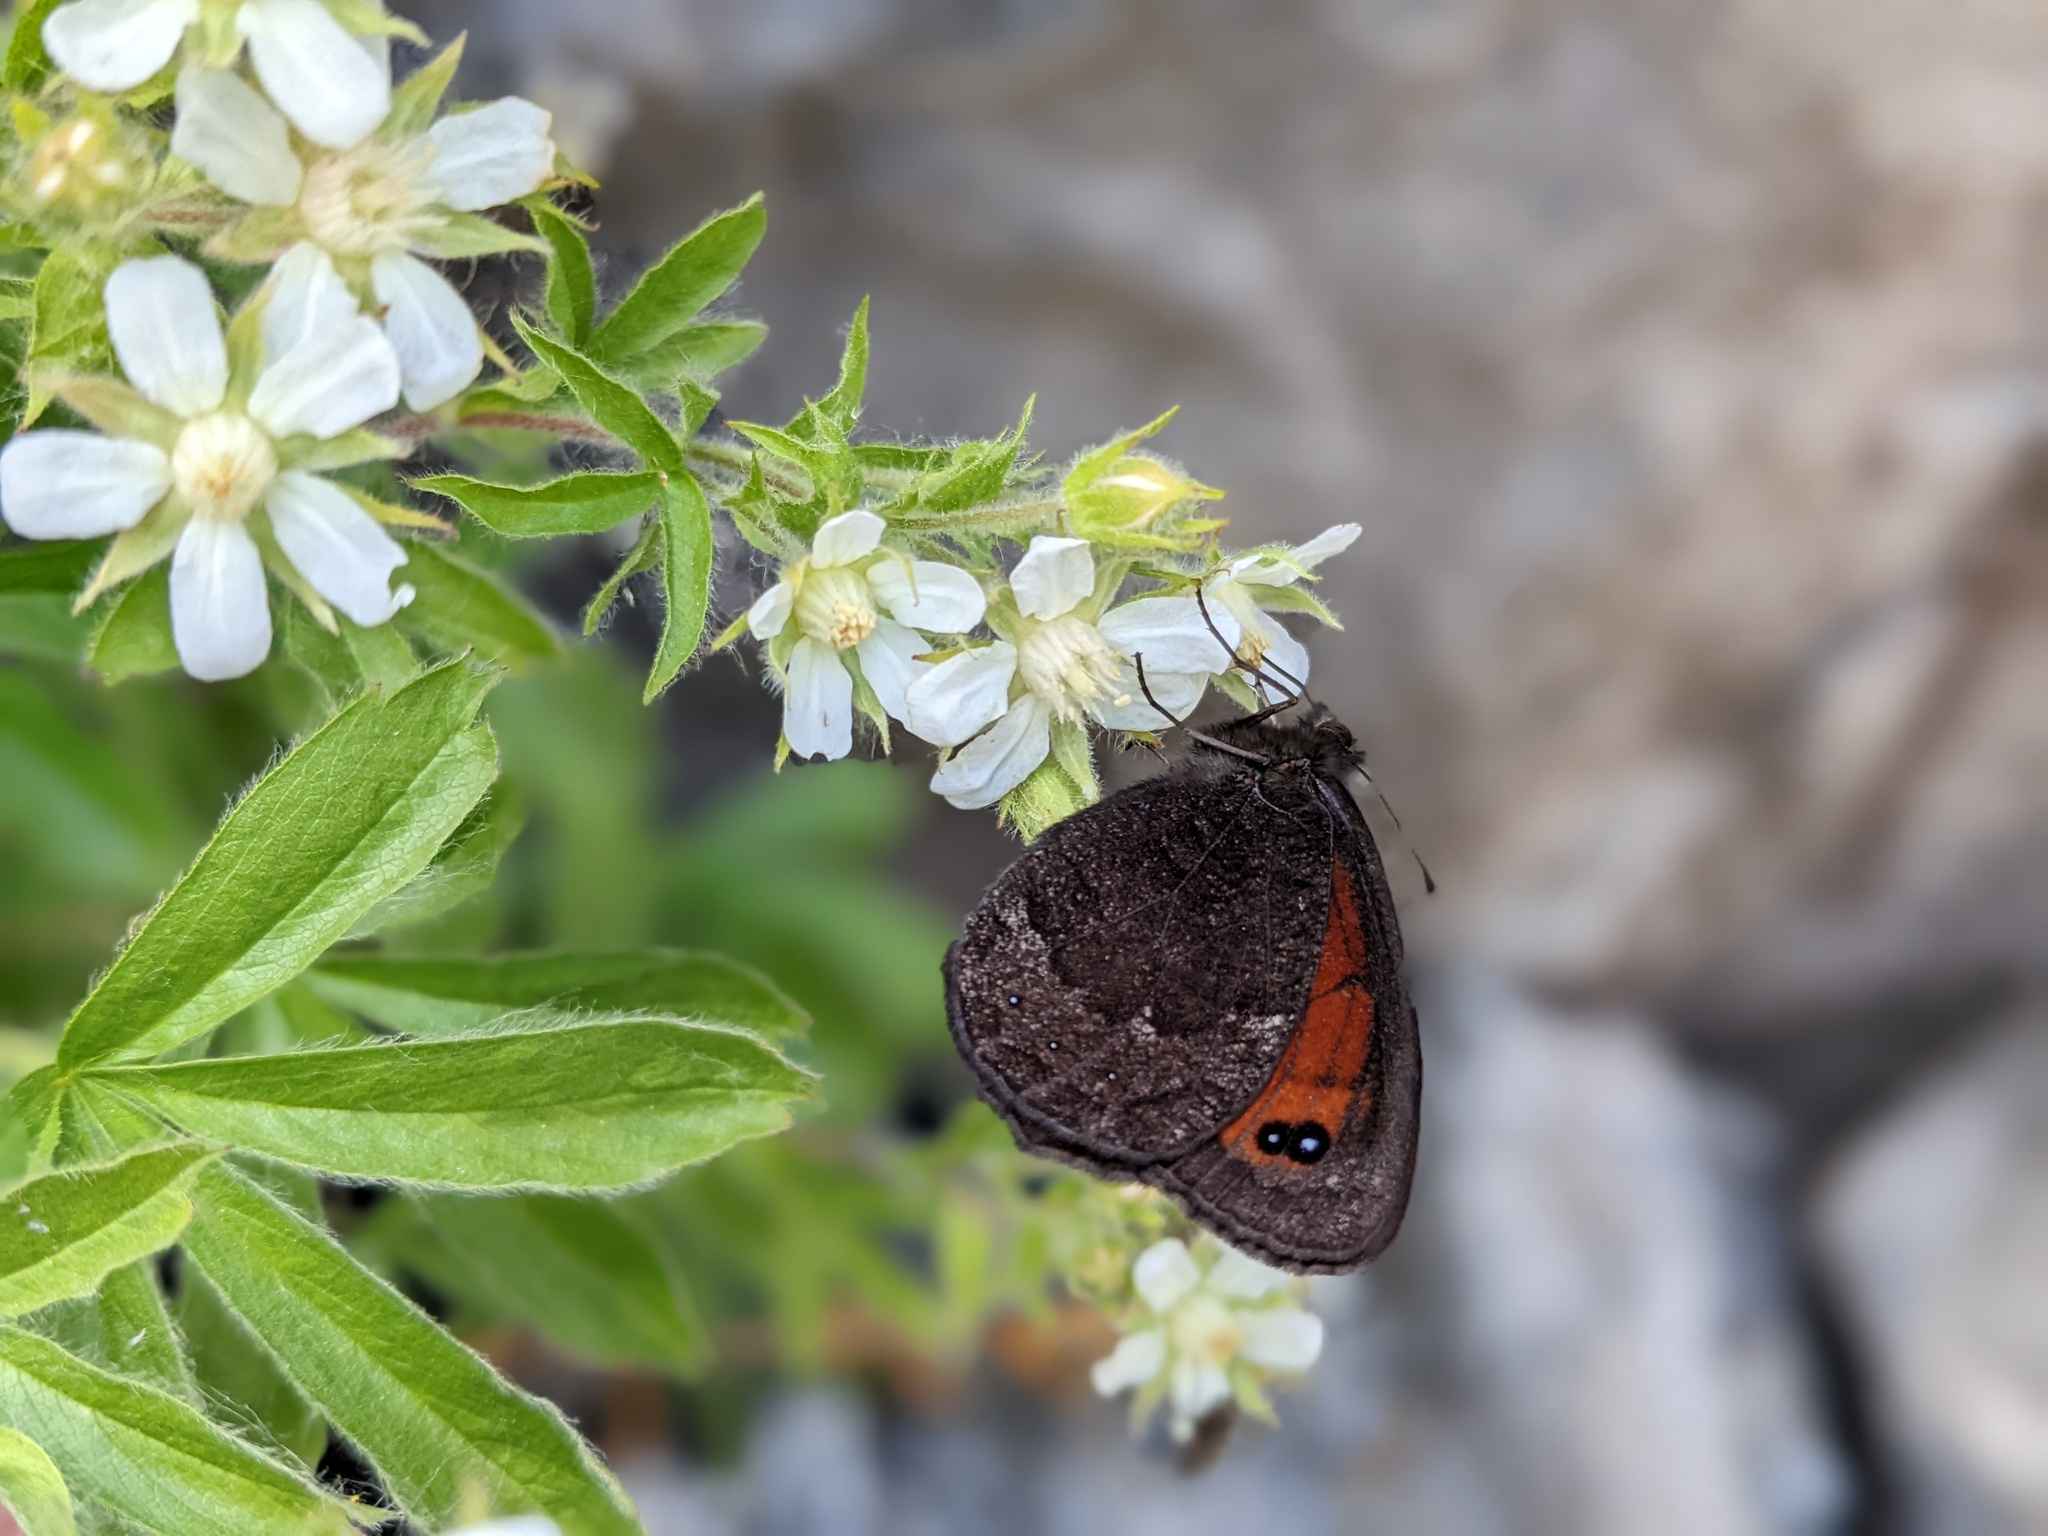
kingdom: Animalia
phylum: Arthropoda
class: Insecta
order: Lepidoptera
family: Nymphalidae
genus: Callerebia
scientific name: Callerebia mani
